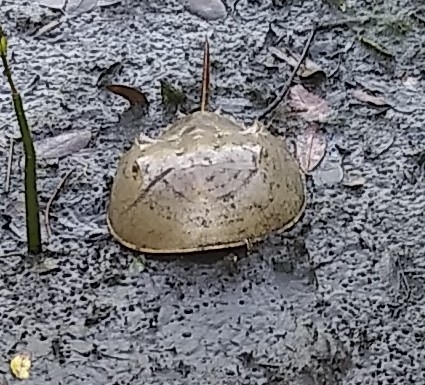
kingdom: Animalia
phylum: Arthropoda
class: Merostomata
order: Xiphosurida
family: Limulidae
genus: Limulus
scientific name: Limulus polyphemus
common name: Horseshoe crab
